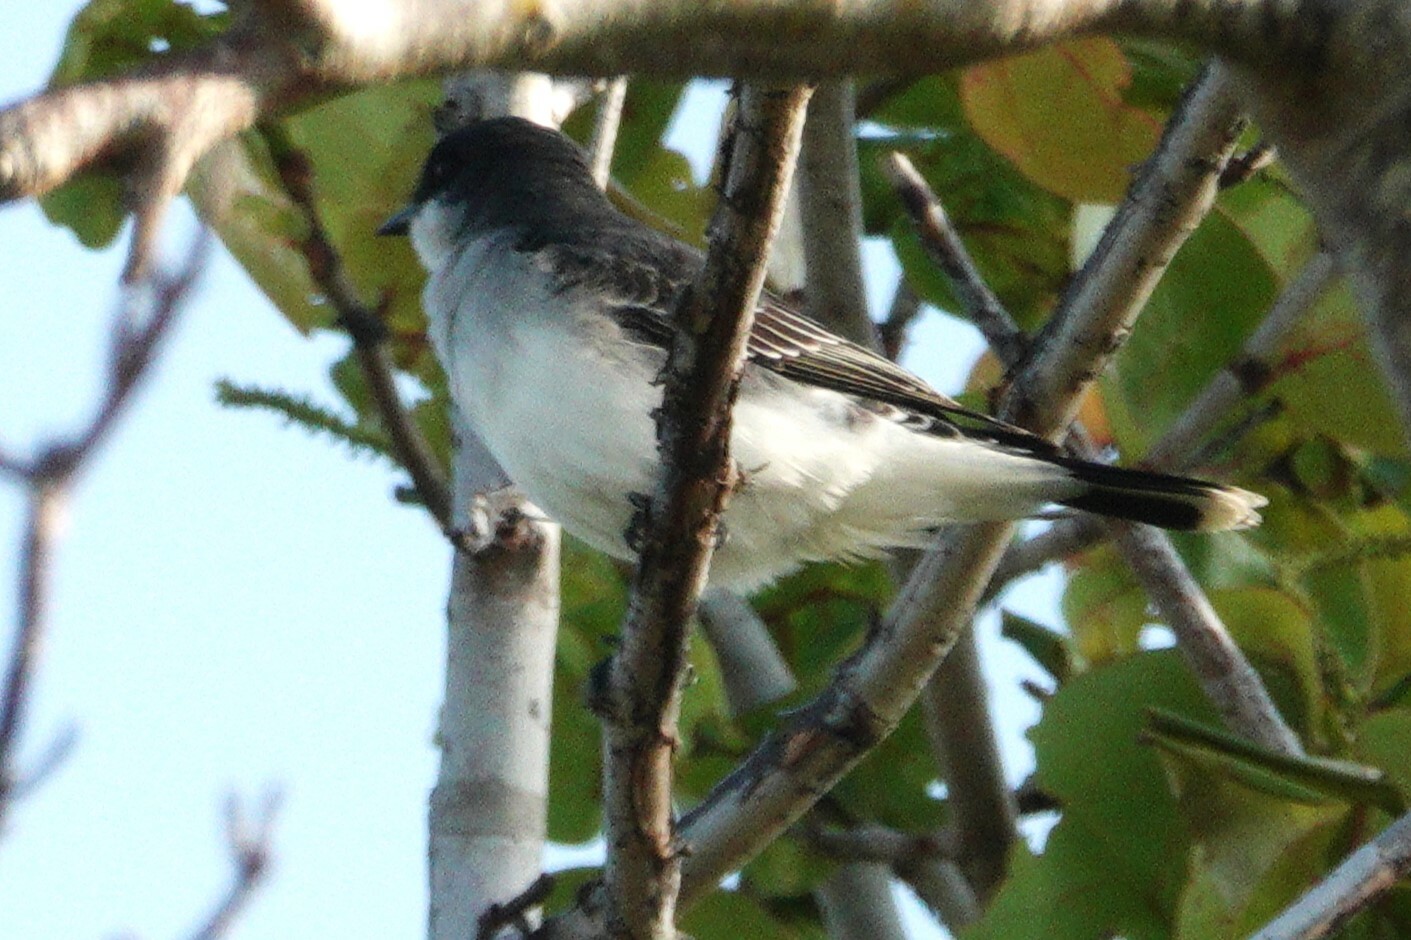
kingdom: Animalia
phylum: Chordata
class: Aves
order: Passeriformes
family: Tyrannidae
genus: Tyrannus
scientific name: Tyrannus tyrannus
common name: Eastern kingbird
